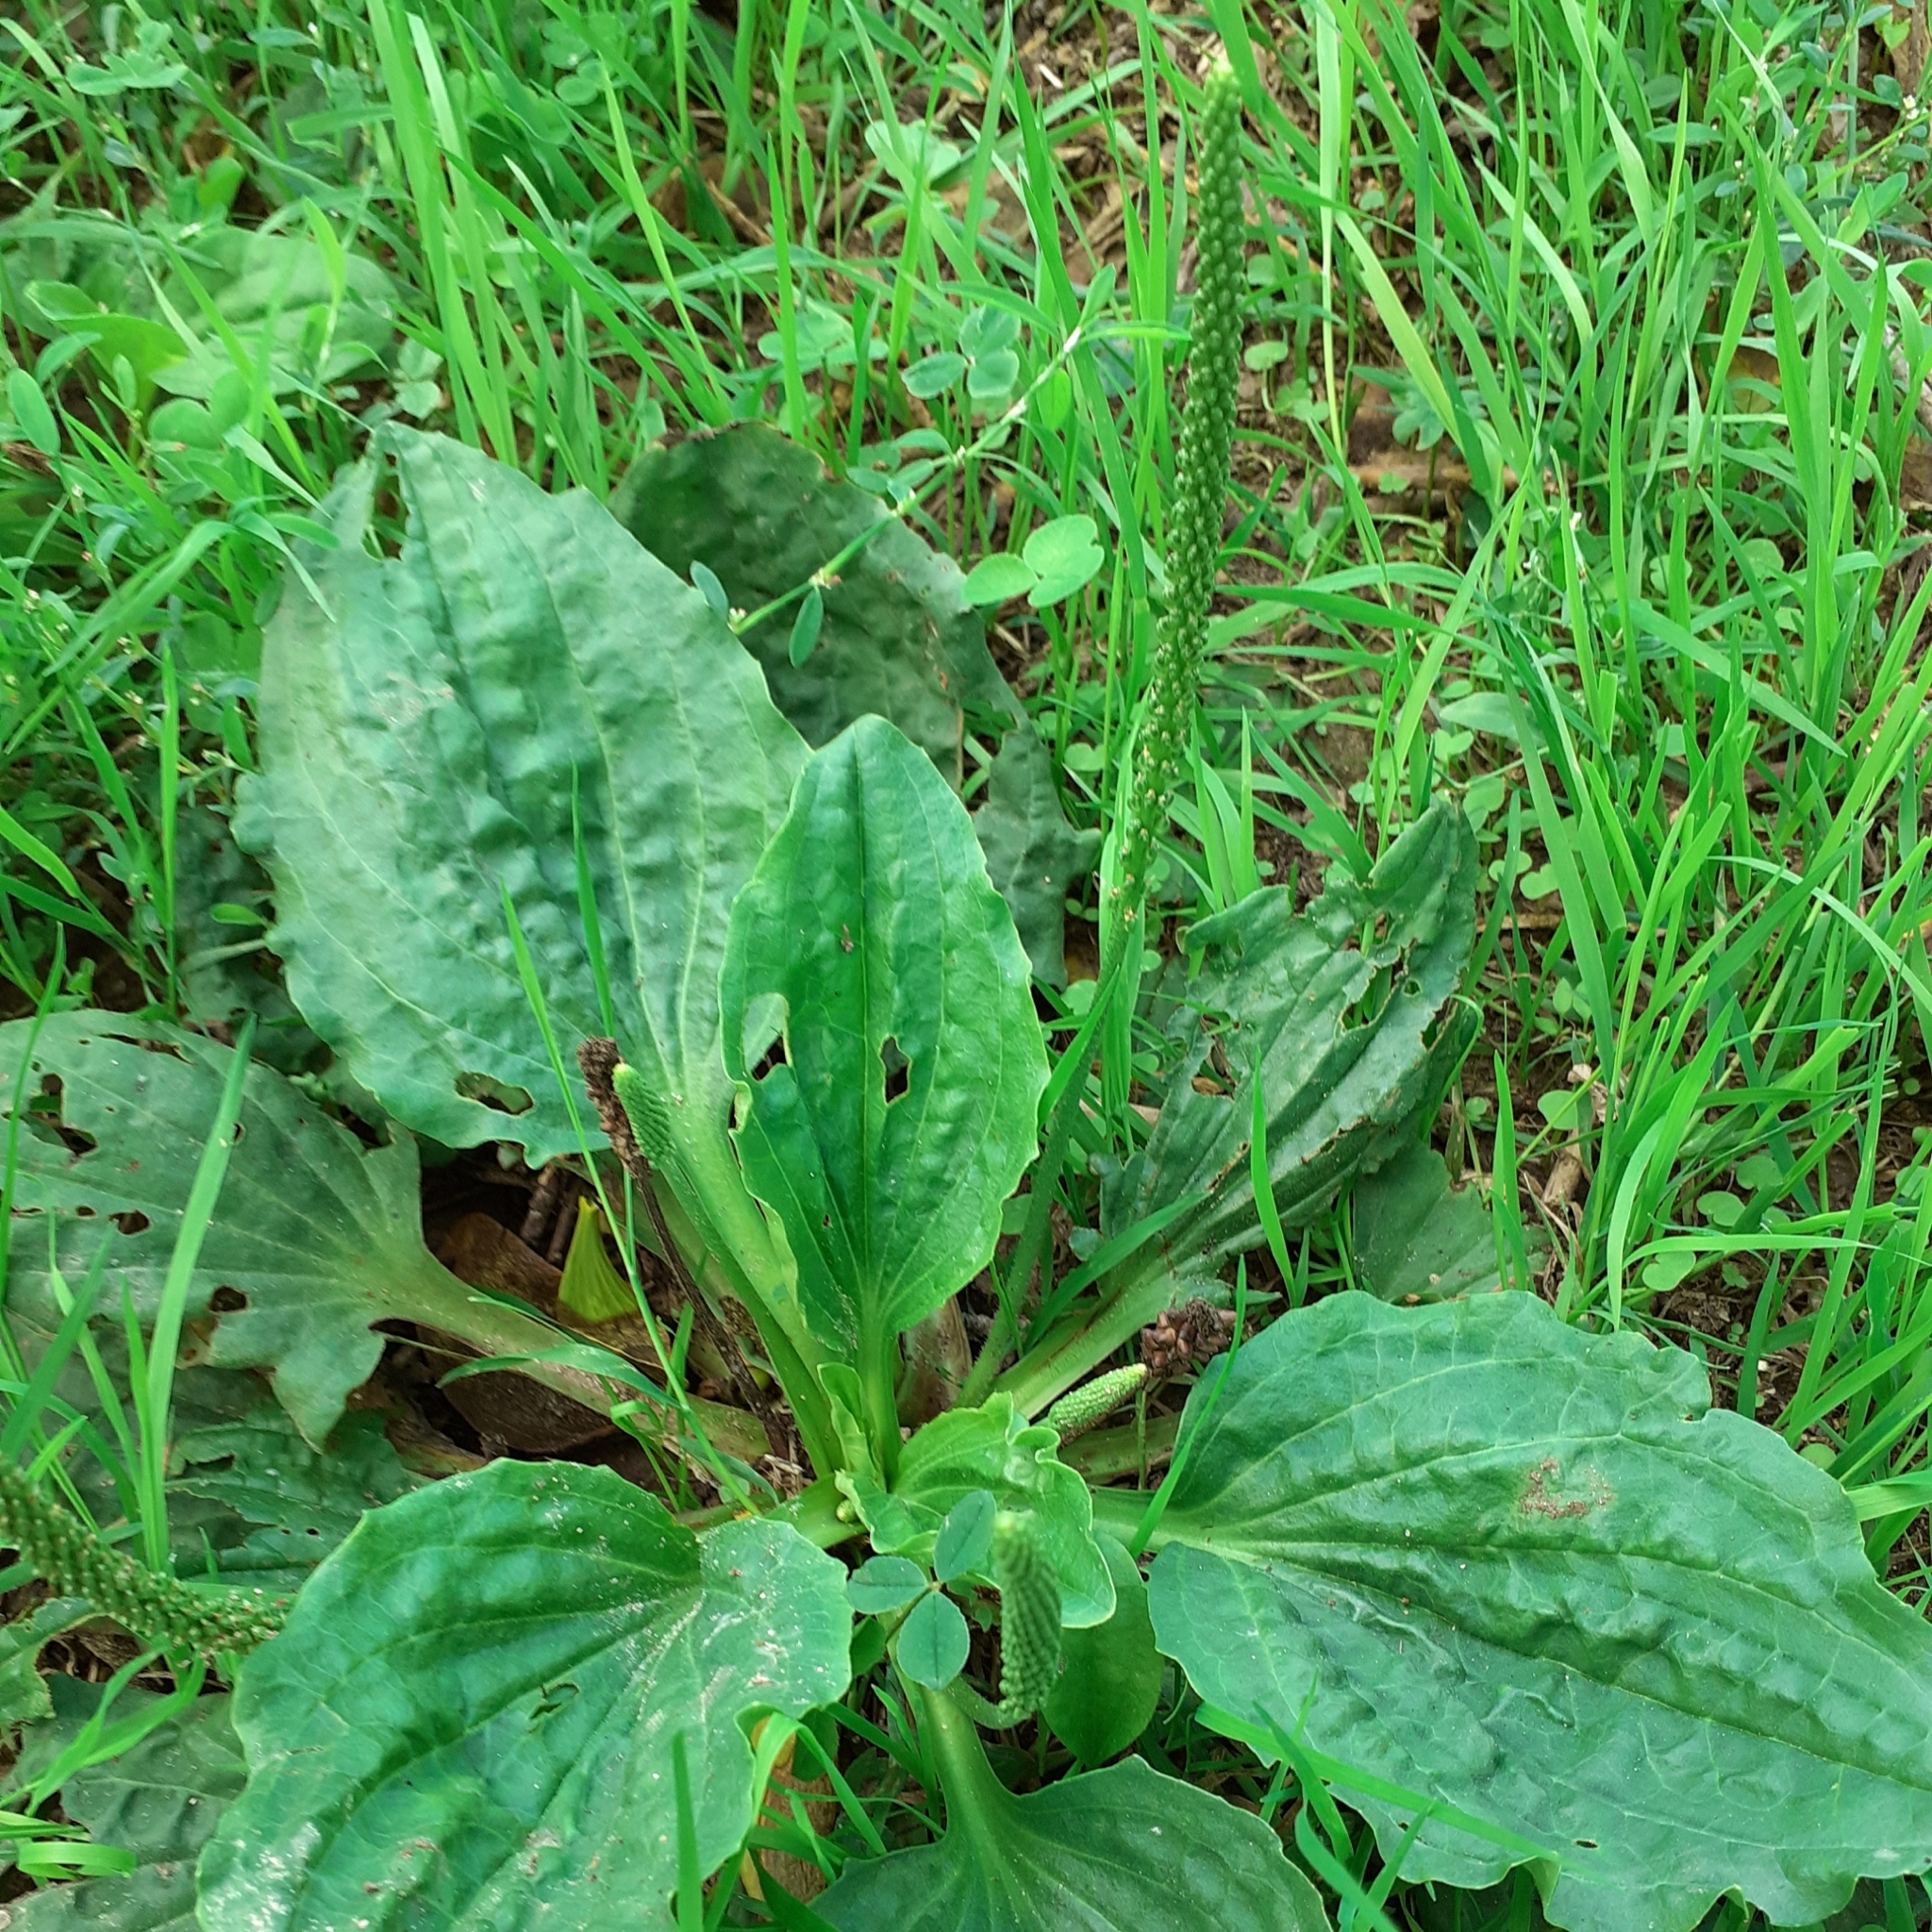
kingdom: Plantae
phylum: Tracheophyta
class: Magnoliopsida
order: Lamiales
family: Plantaginaceae
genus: Plantago
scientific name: Plantago major
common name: Common plantain
